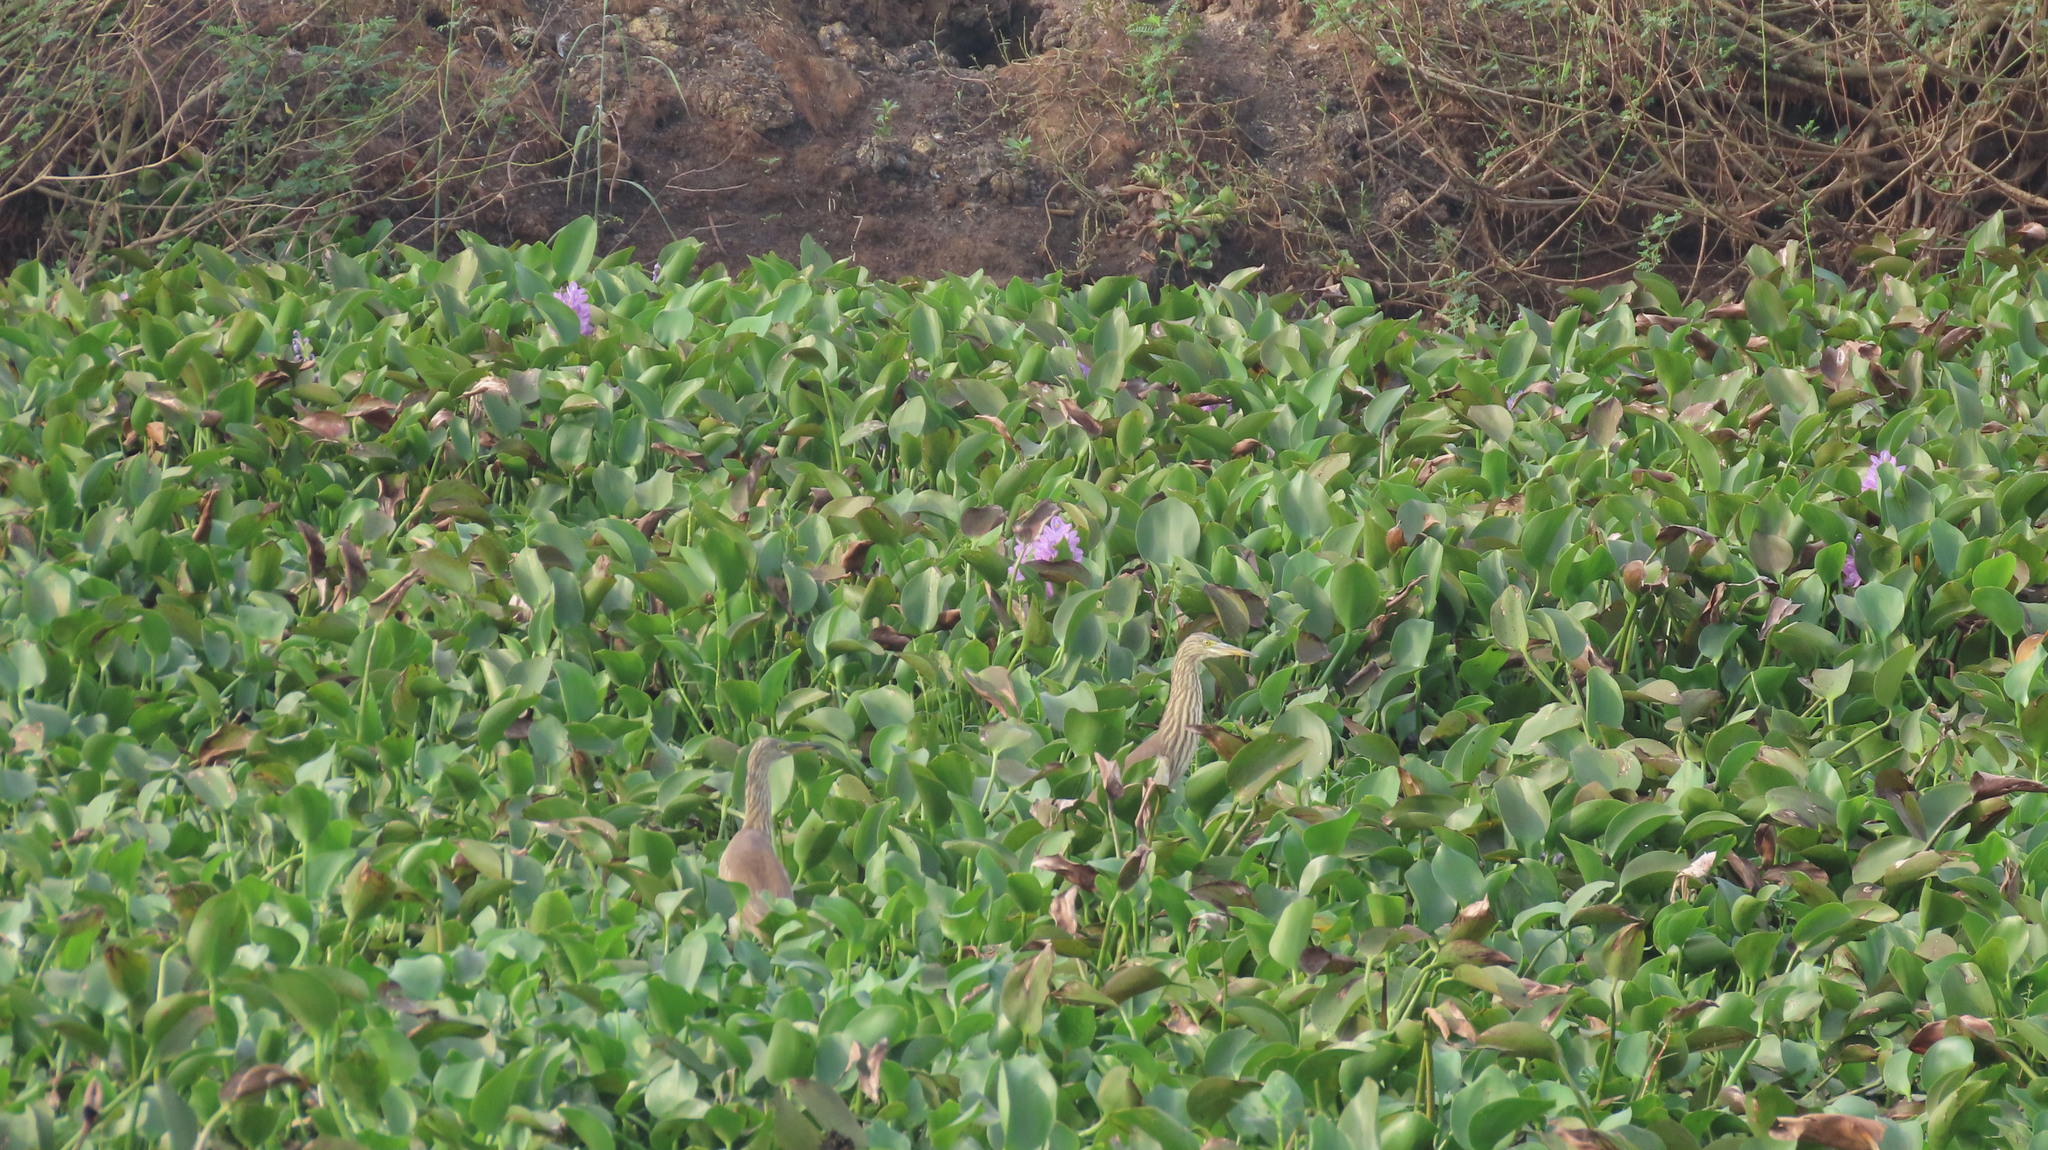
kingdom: Plantae
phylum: Tracheophyta
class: Liliopsida
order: Commelinales
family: Pontederiaceae
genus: Pontederia
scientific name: Pontederia crassipes
